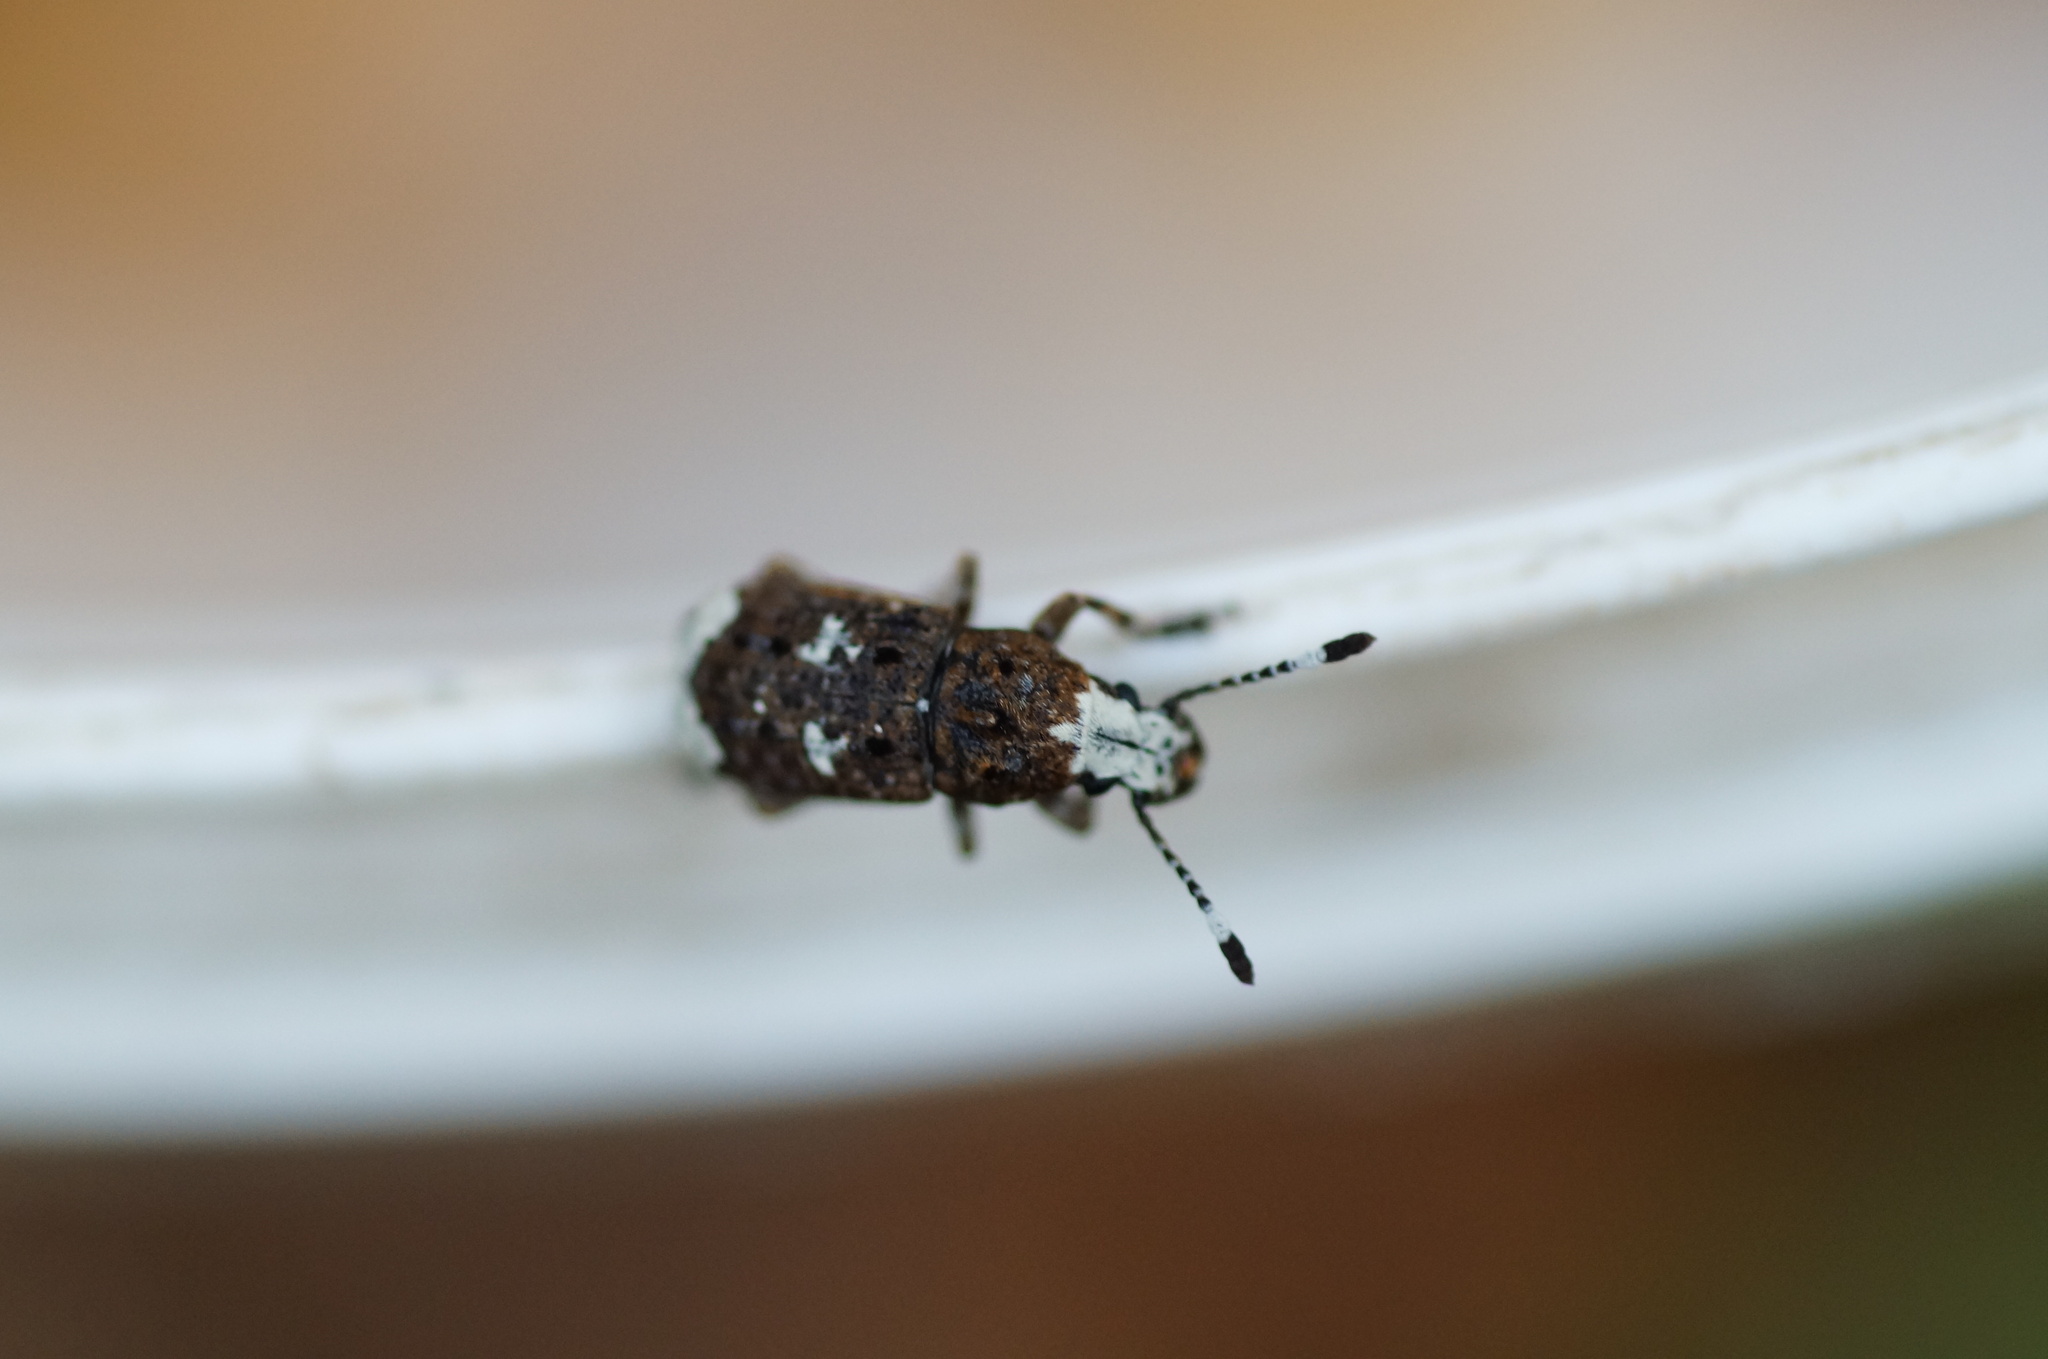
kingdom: Animalia
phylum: Arthropoda
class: Insecta
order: Coleoptera
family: Anthribidae
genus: Platystomos
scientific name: Platystomos albinus
